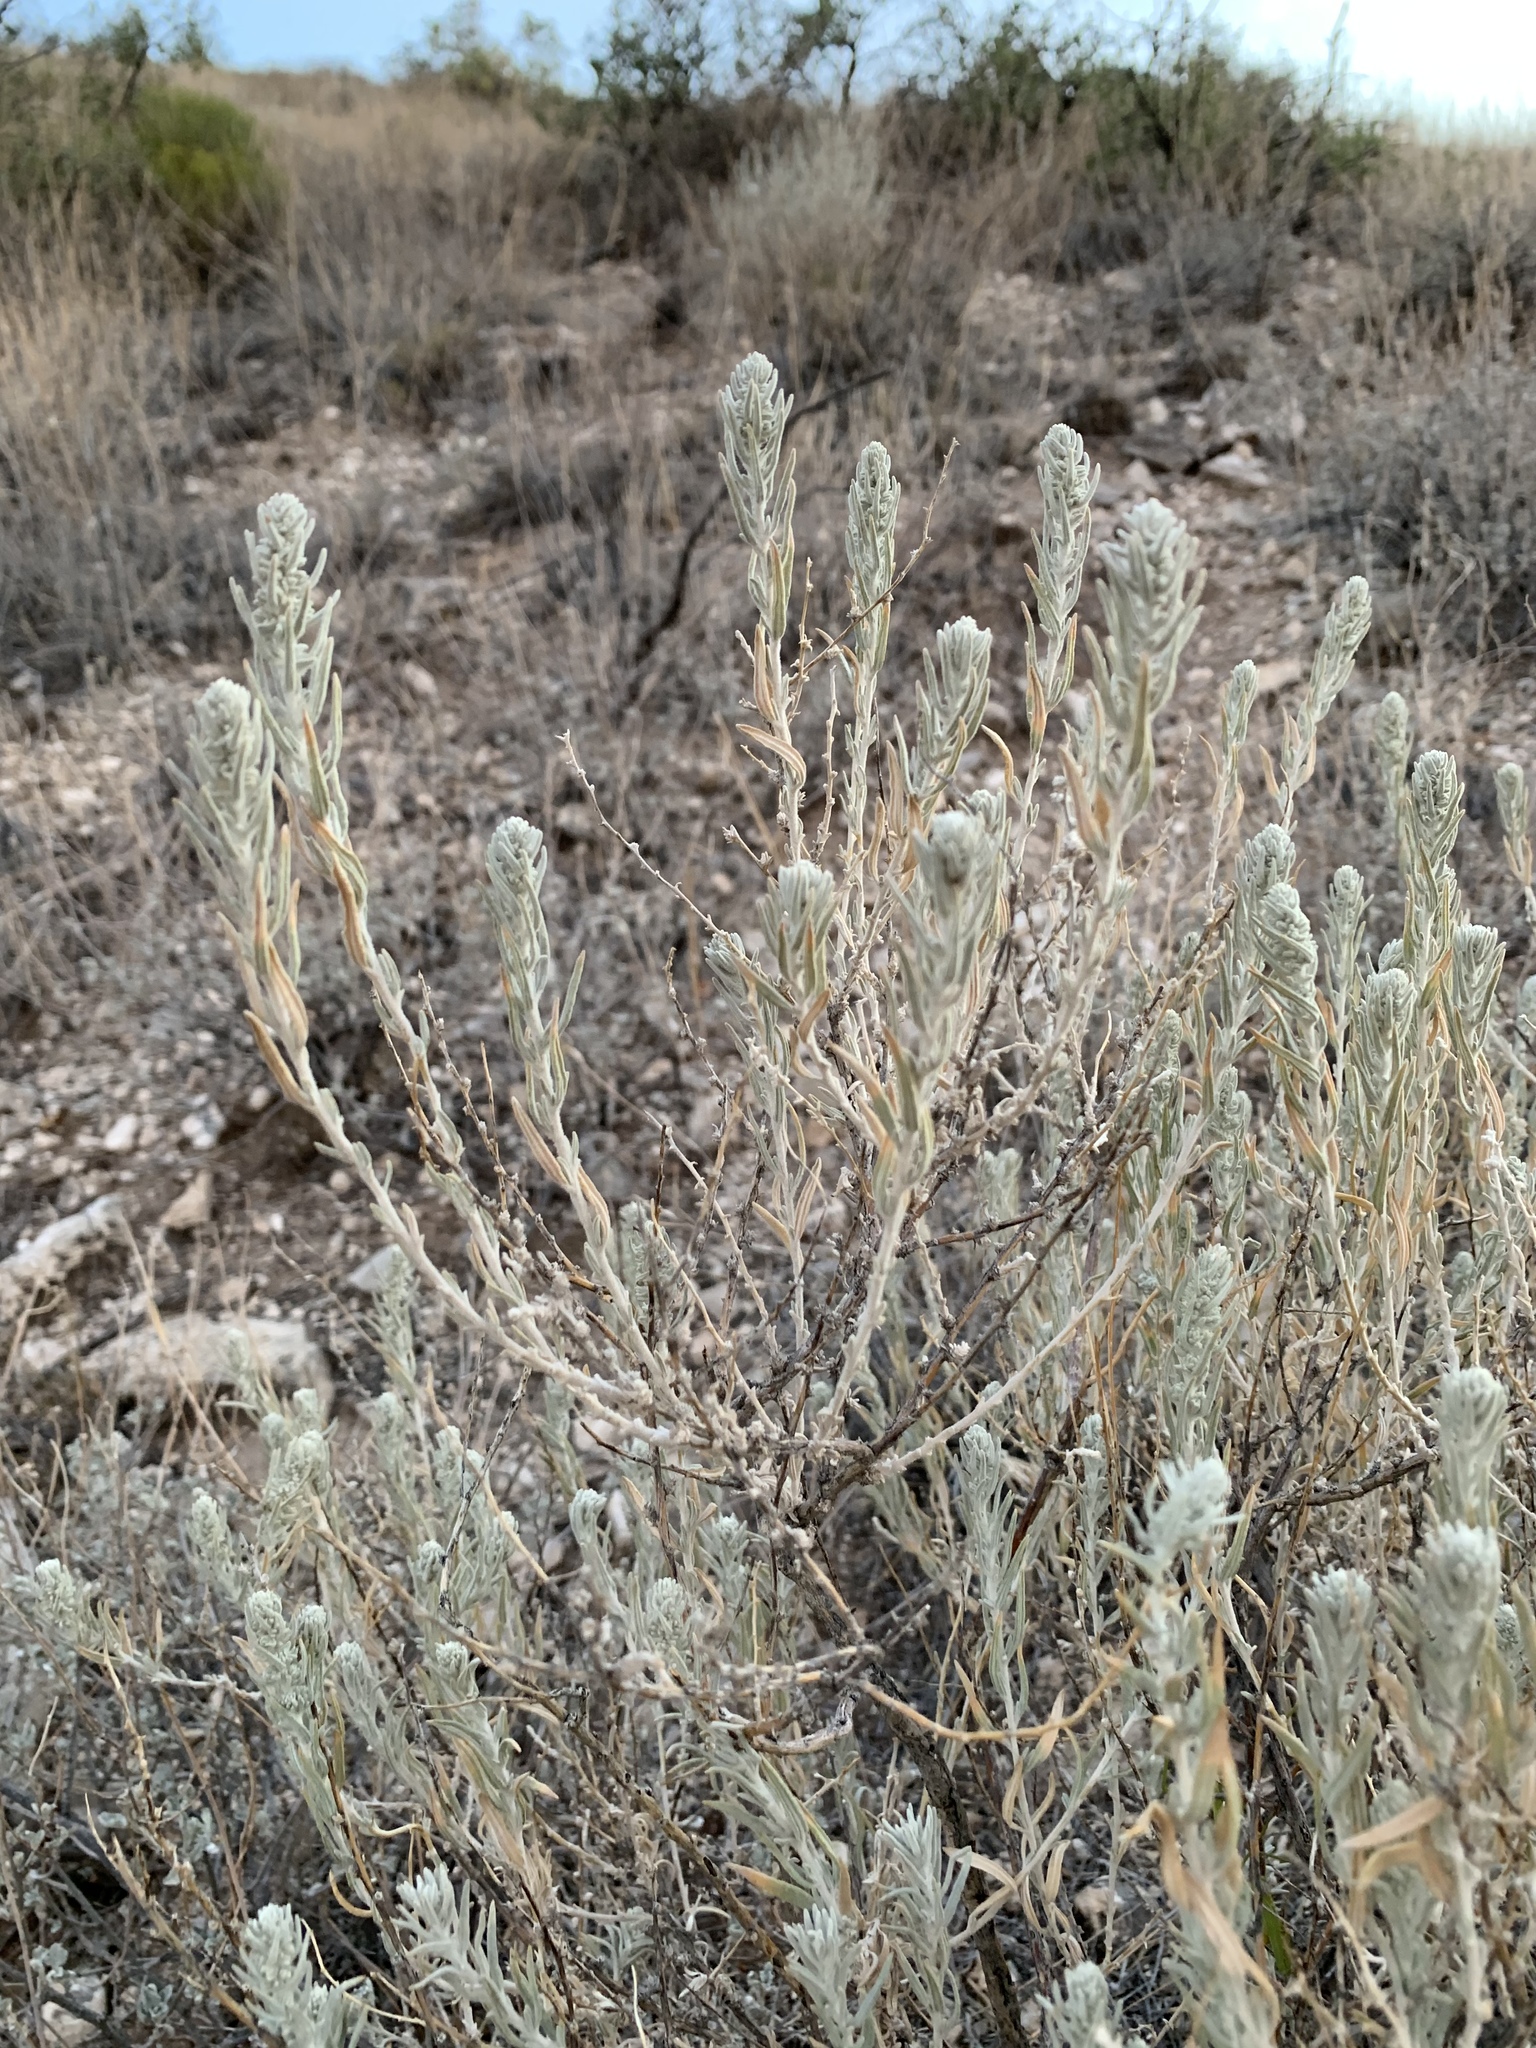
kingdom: Plantae
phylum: Tracheophyta
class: Magnoliopsida
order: Caryophyllales
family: Amaranthaceae
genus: Krascheninnikovia
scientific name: Krascheninnikovia lanata
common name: Winterfat
